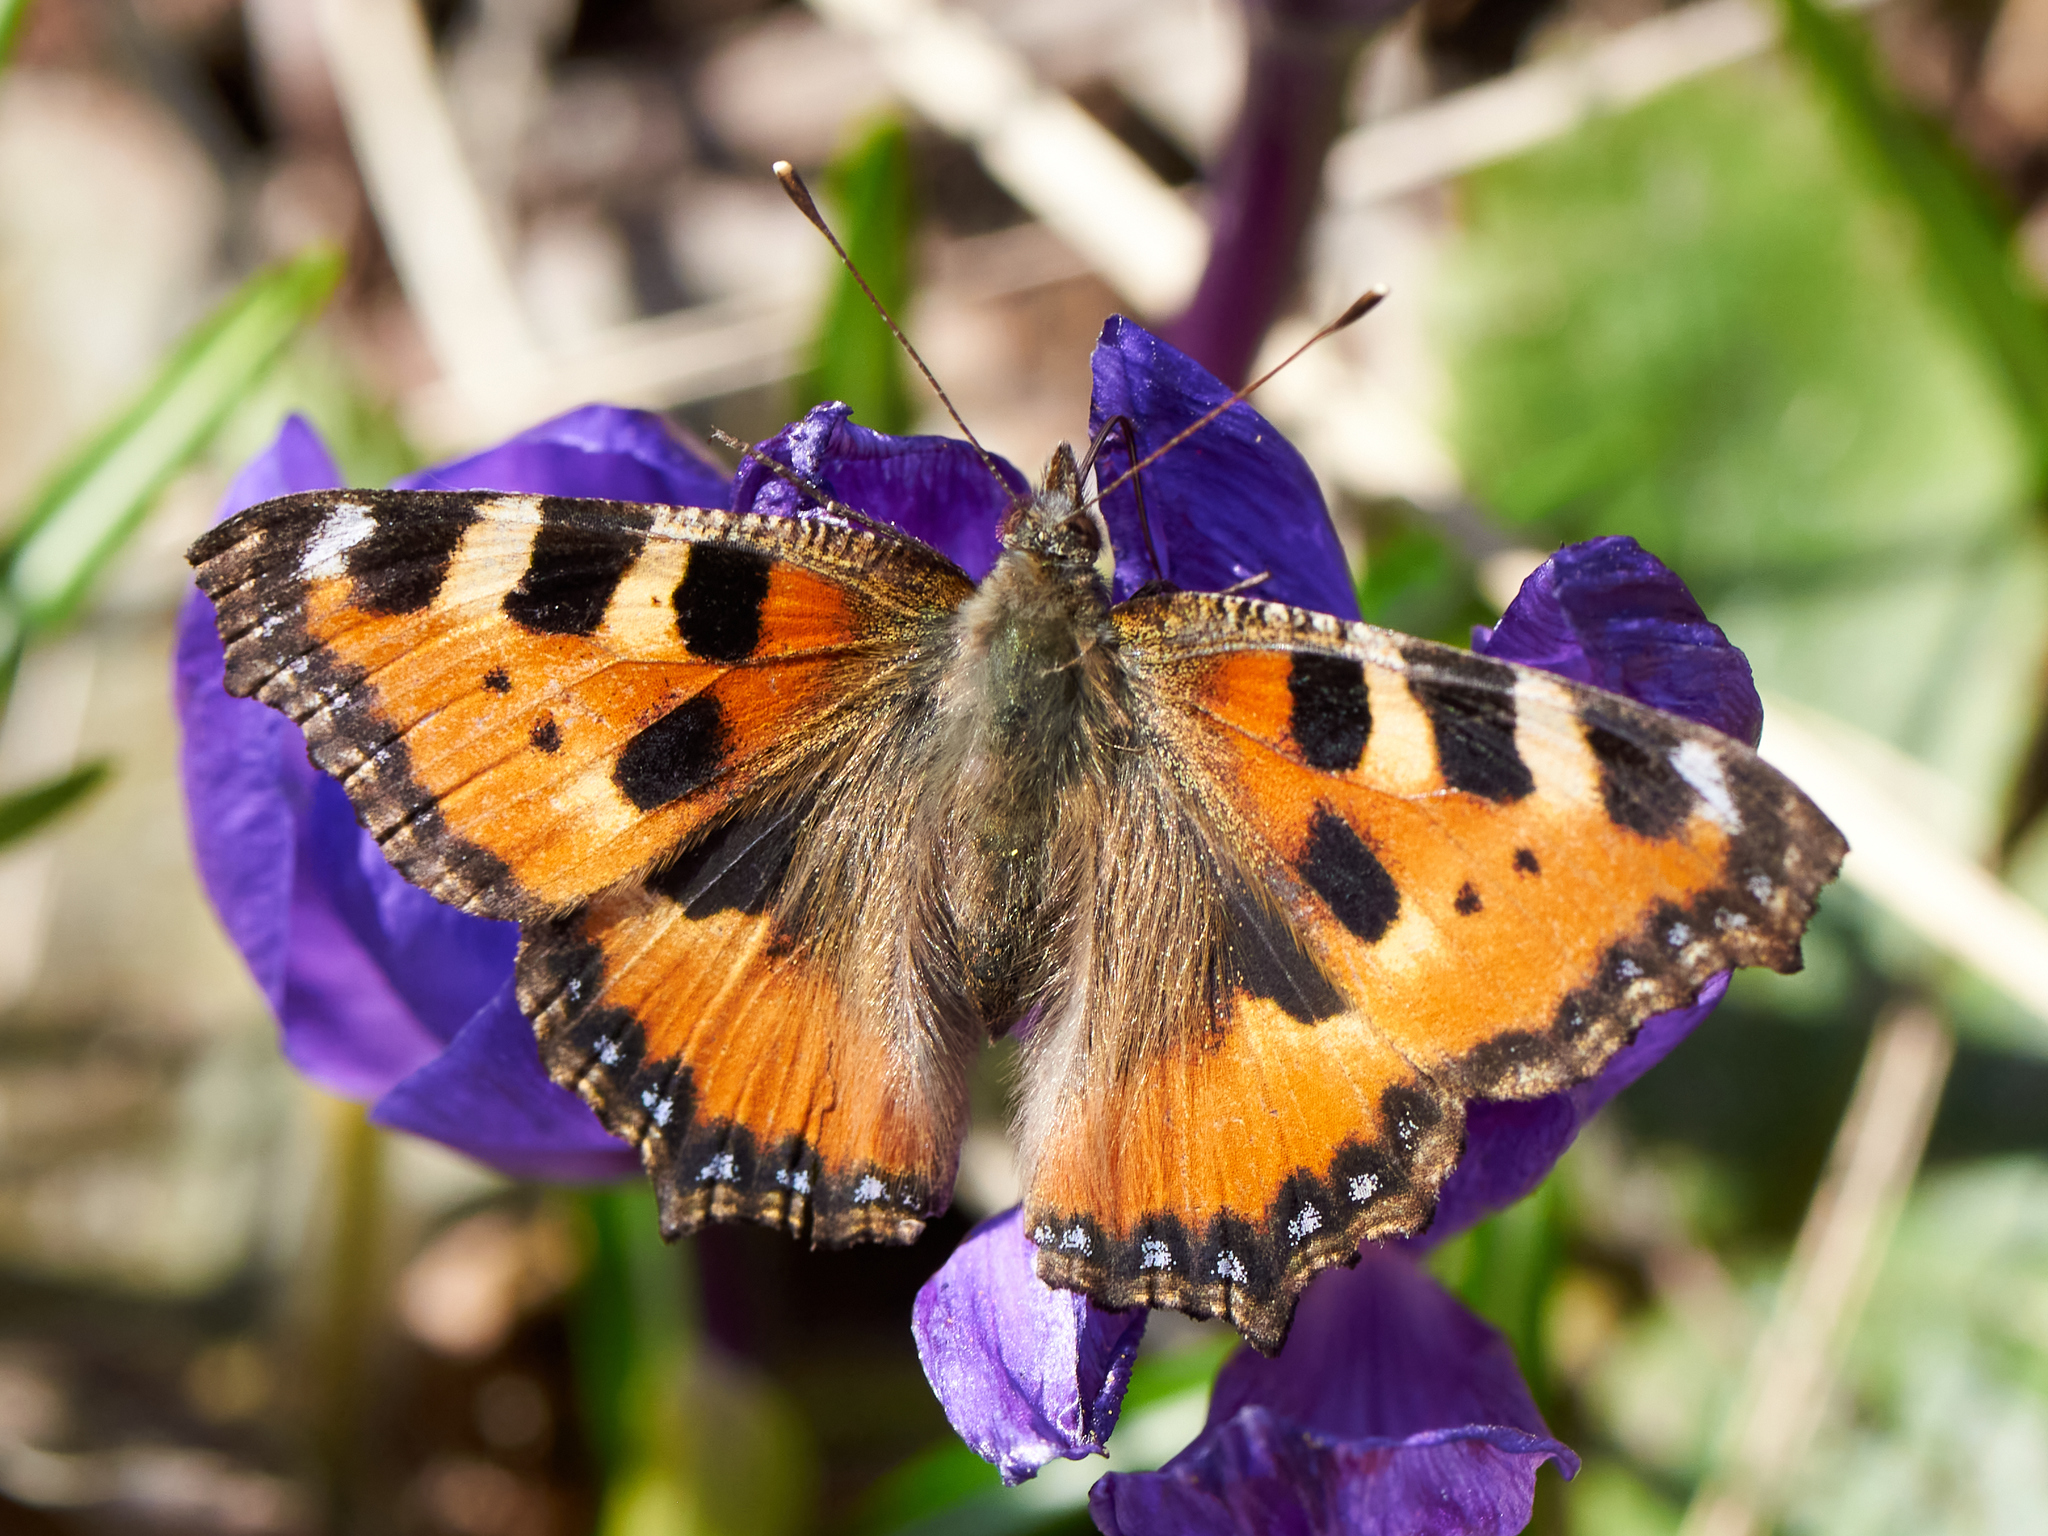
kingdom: Animalia
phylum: Arthropoda
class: Insecta
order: Lepidoptera
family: Nymphalidae
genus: Aglais
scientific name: Aglais urticae
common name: Small tortoiseshell
